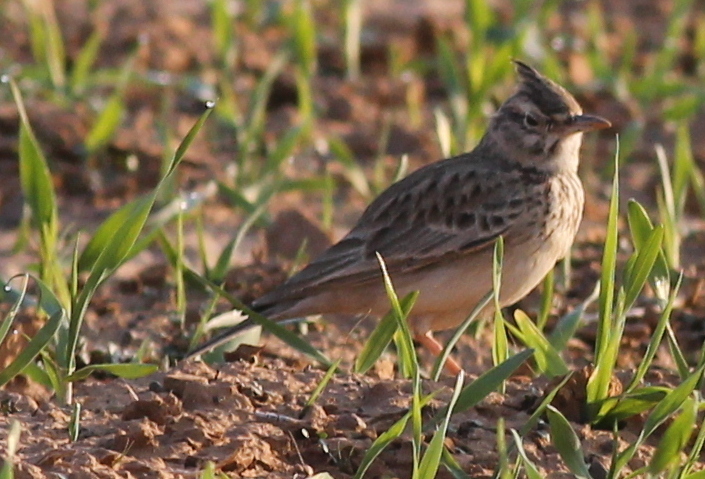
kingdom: Animalia
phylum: Chordata
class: Aves
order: Passeriformes
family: Alaudidae
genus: Galerida
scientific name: Galerida cristata
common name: Crested lark
